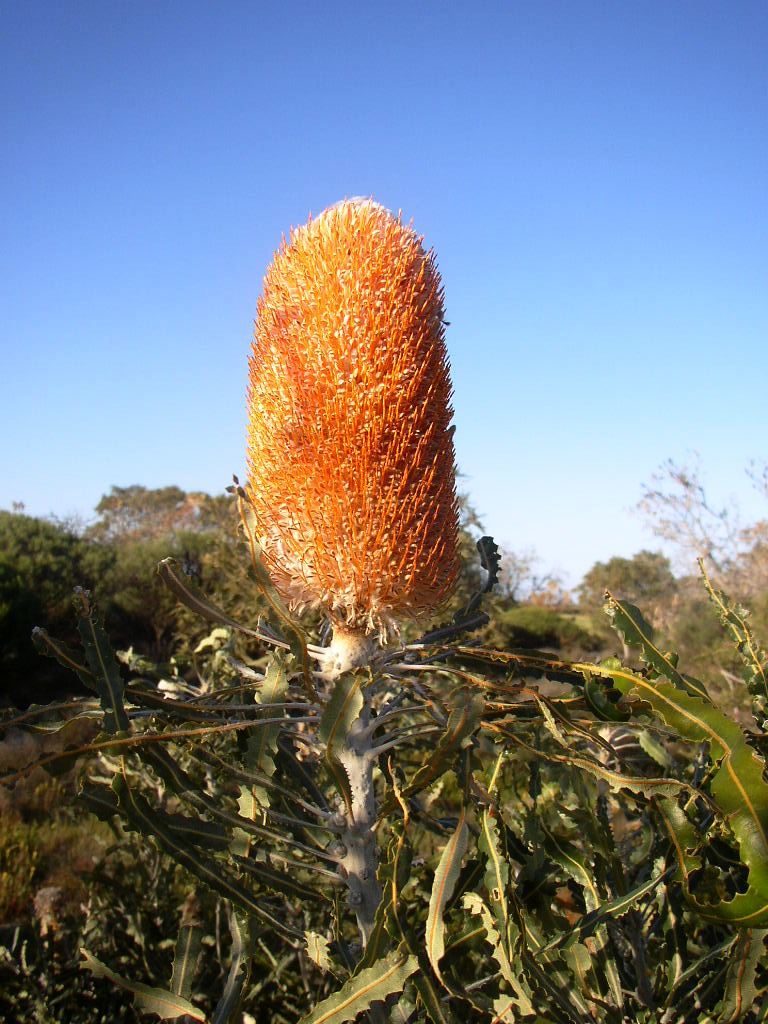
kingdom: Plantae
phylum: Tracheophyta
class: Magnoliopsida
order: Proteales
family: Proteaceae
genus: Banksia
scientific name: Banksia hookeriana
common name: Hooker's banksia
